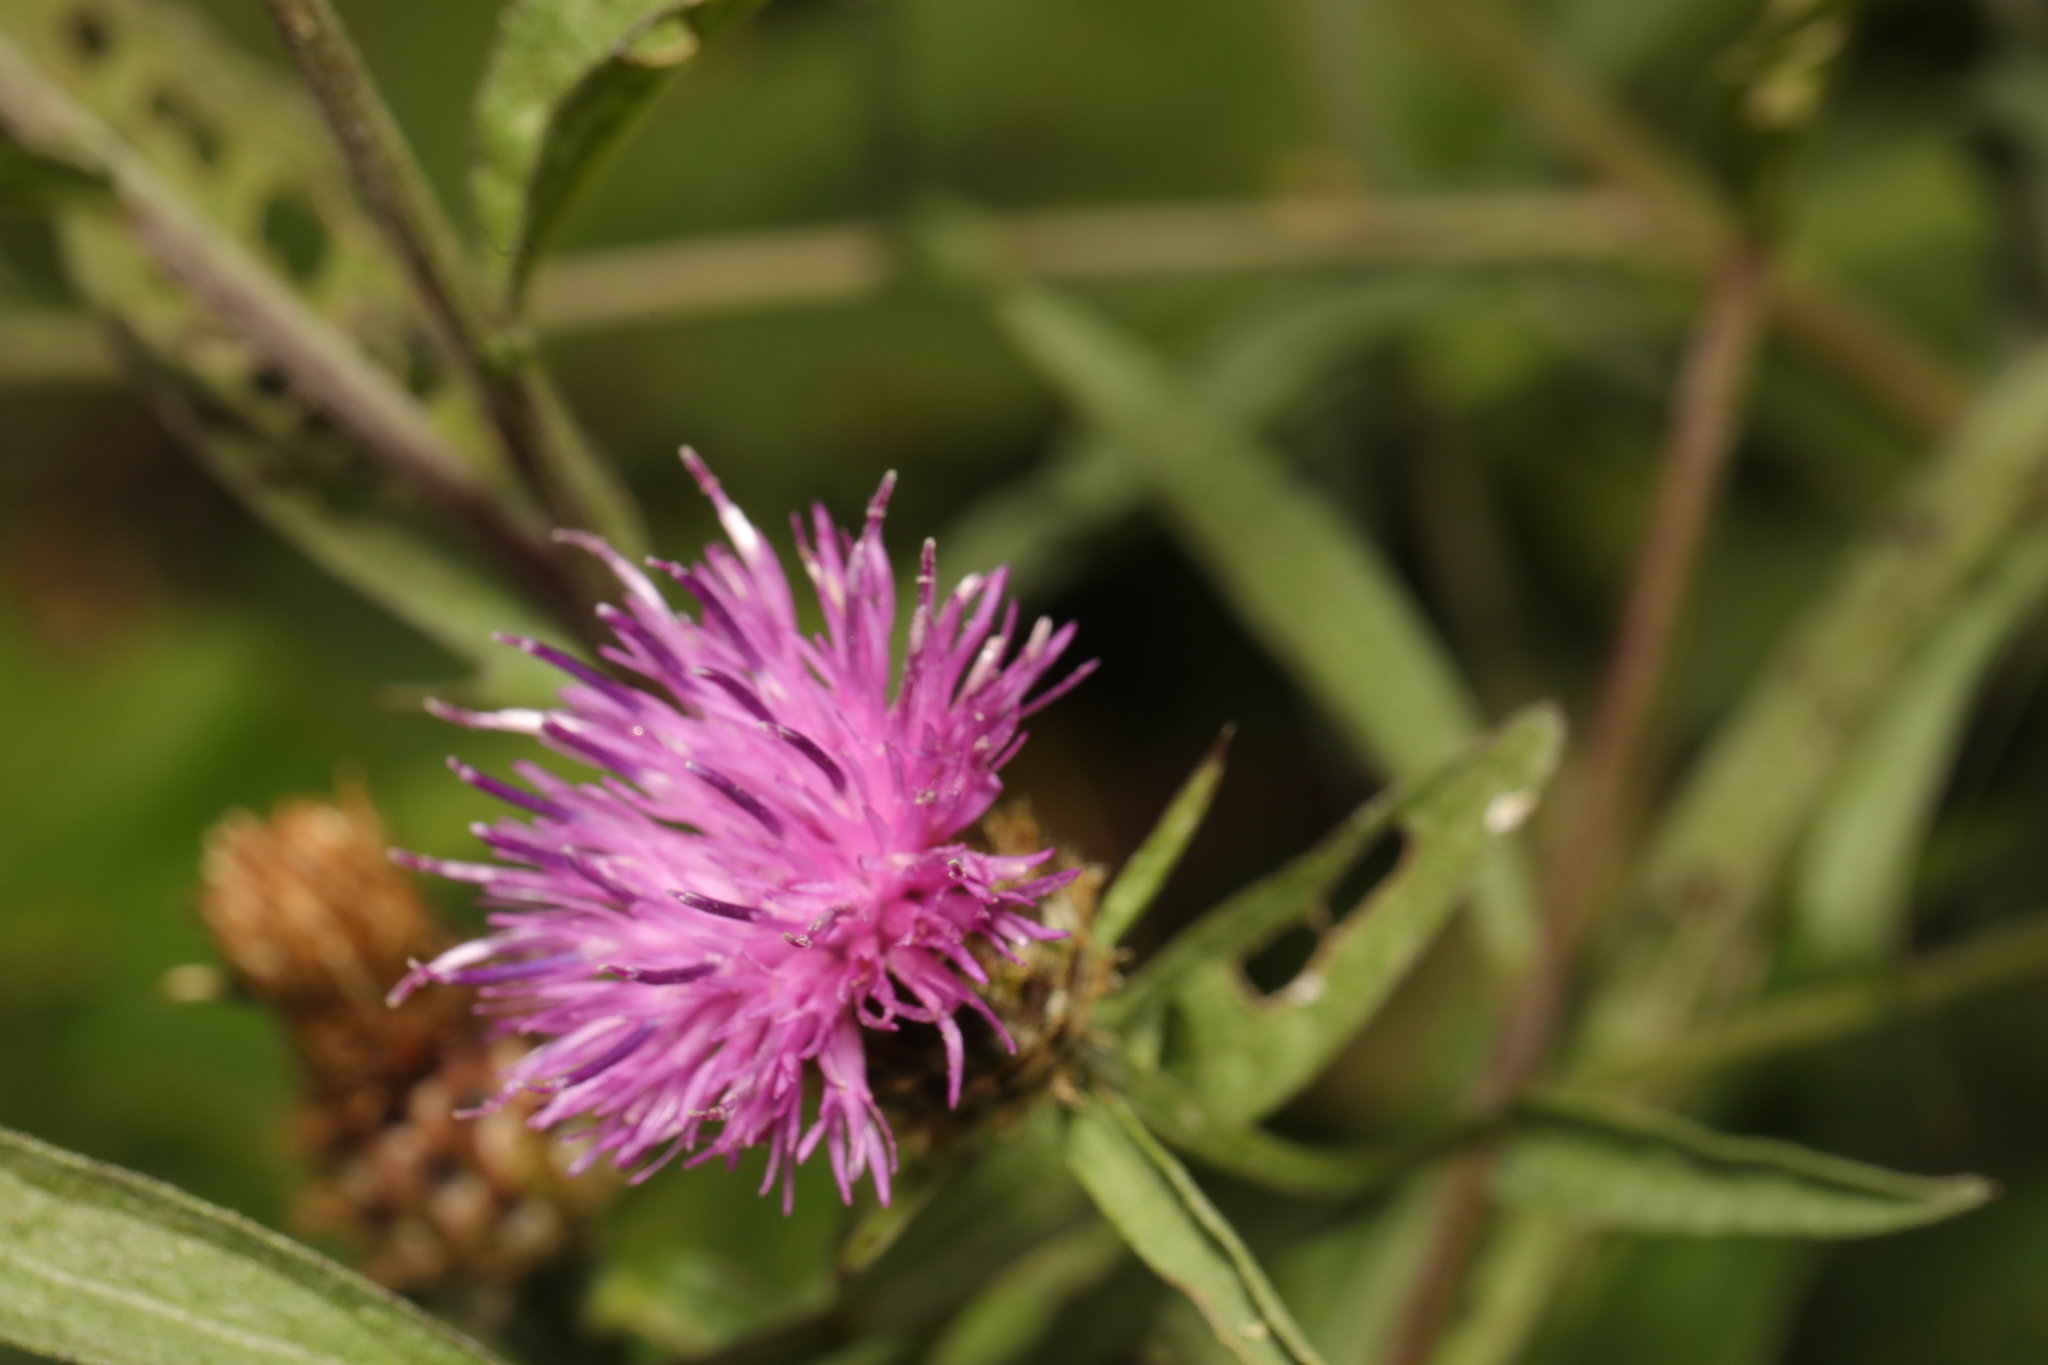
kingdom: Plantae
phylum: Tracheophyta
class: Magnoliopsida
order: Asterales
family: Asteraceae
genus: Centaurea
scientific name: Centaurea nigra
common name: Lesser knapweed
